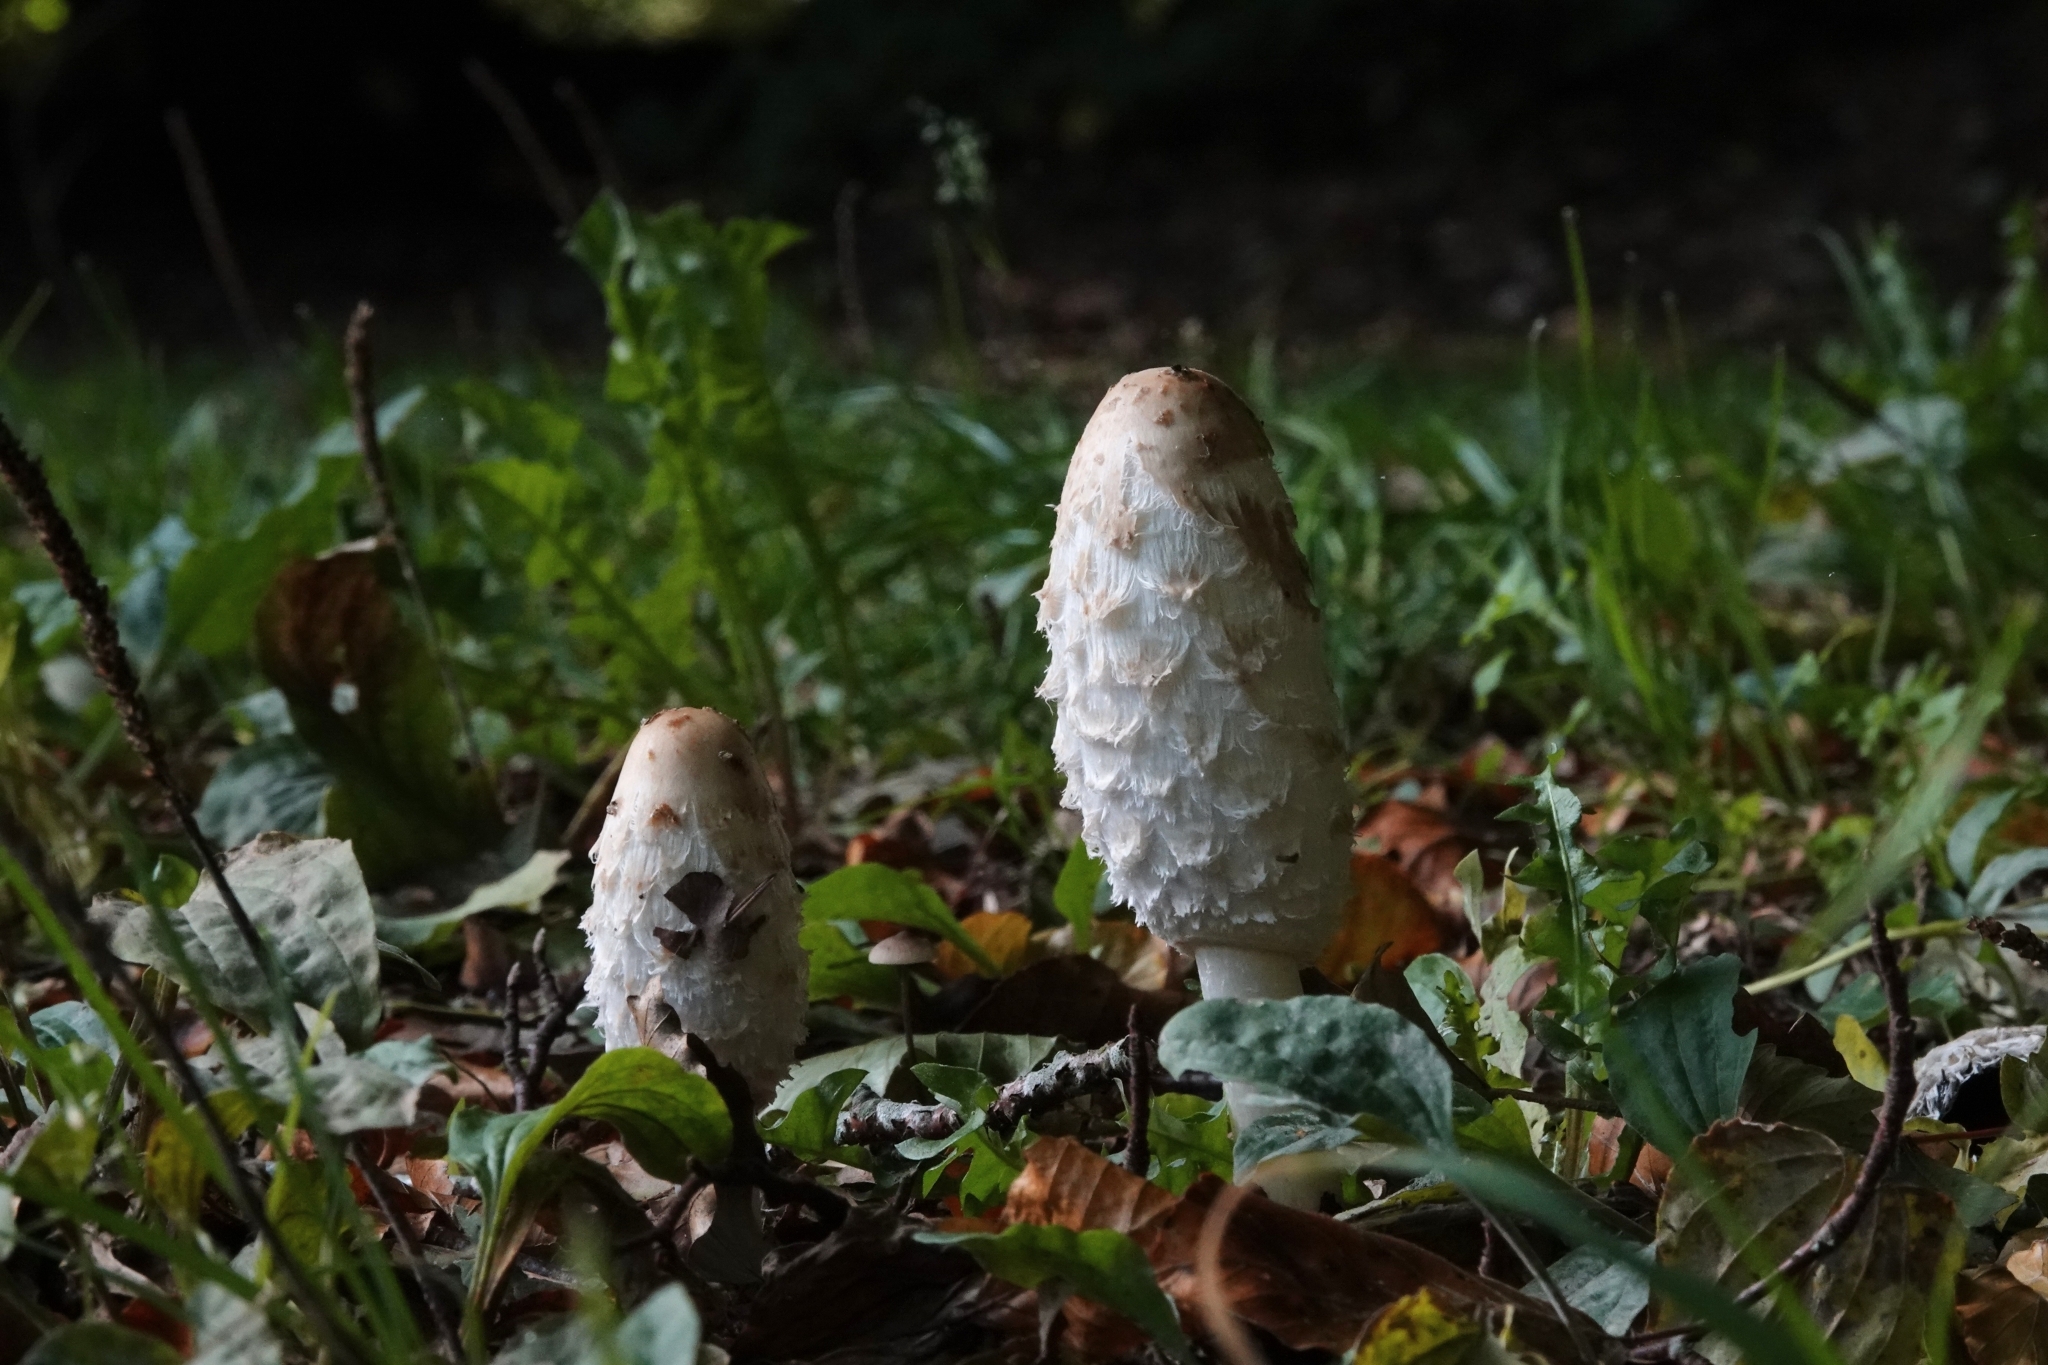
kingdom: Fungi
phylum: Basidiomycota
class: Agaricomycetes
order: Agaricales
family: Agaricaceae
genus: Coprinus
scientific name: Coprinus comatus
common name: Lawyer's wig
